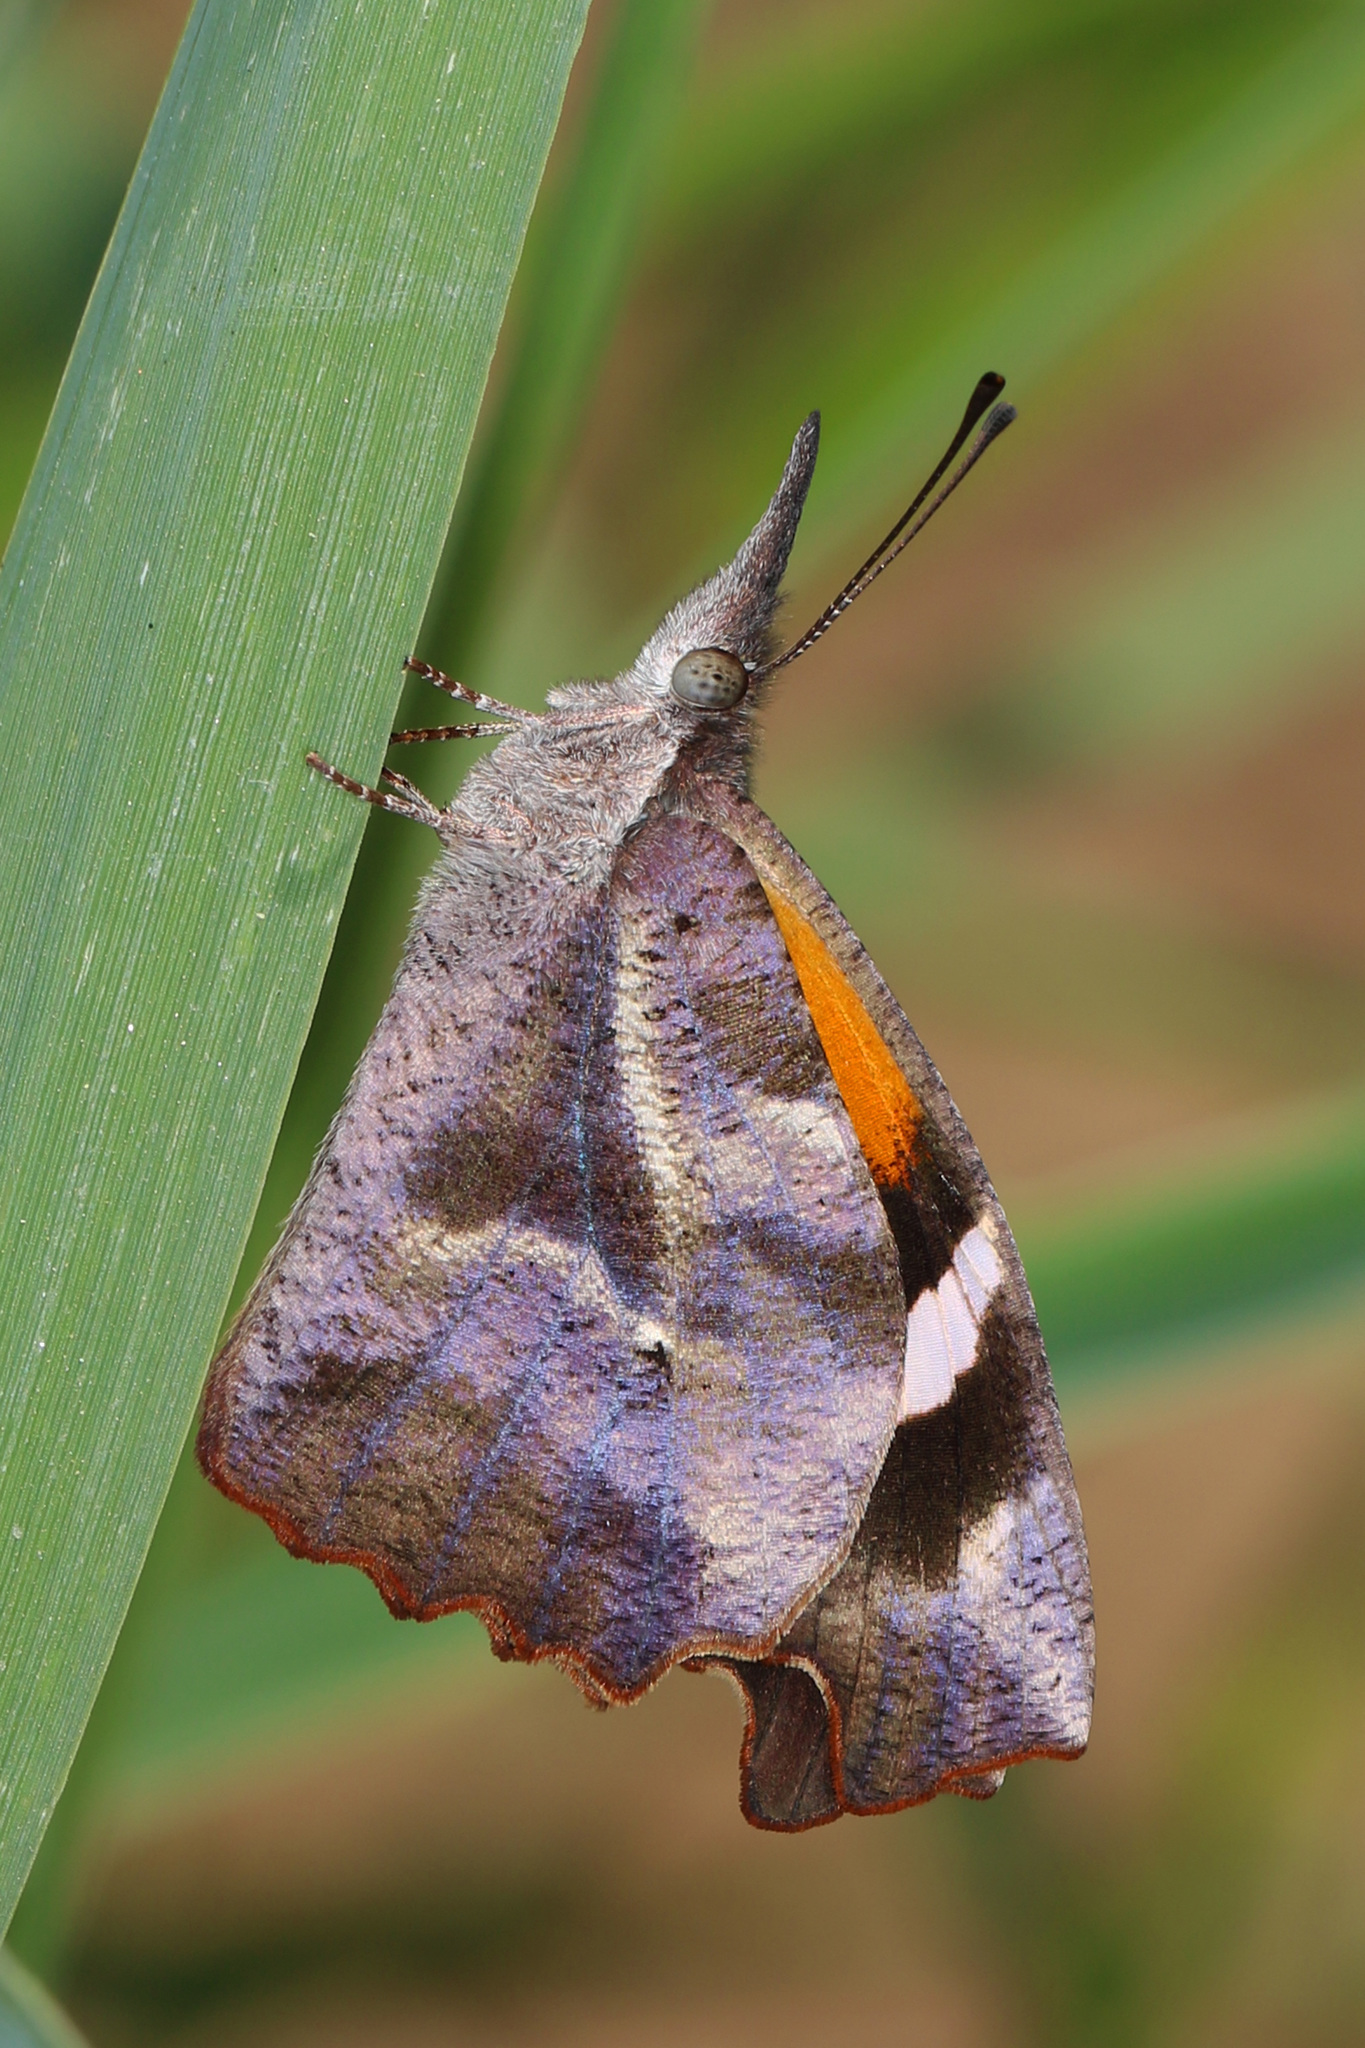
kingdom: Animalia
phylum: Arthropoda
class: Insecta
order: Lepidoptera
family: Nymphalidae
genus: Libytheana
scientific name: Libytheana carinenta
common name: American snout
